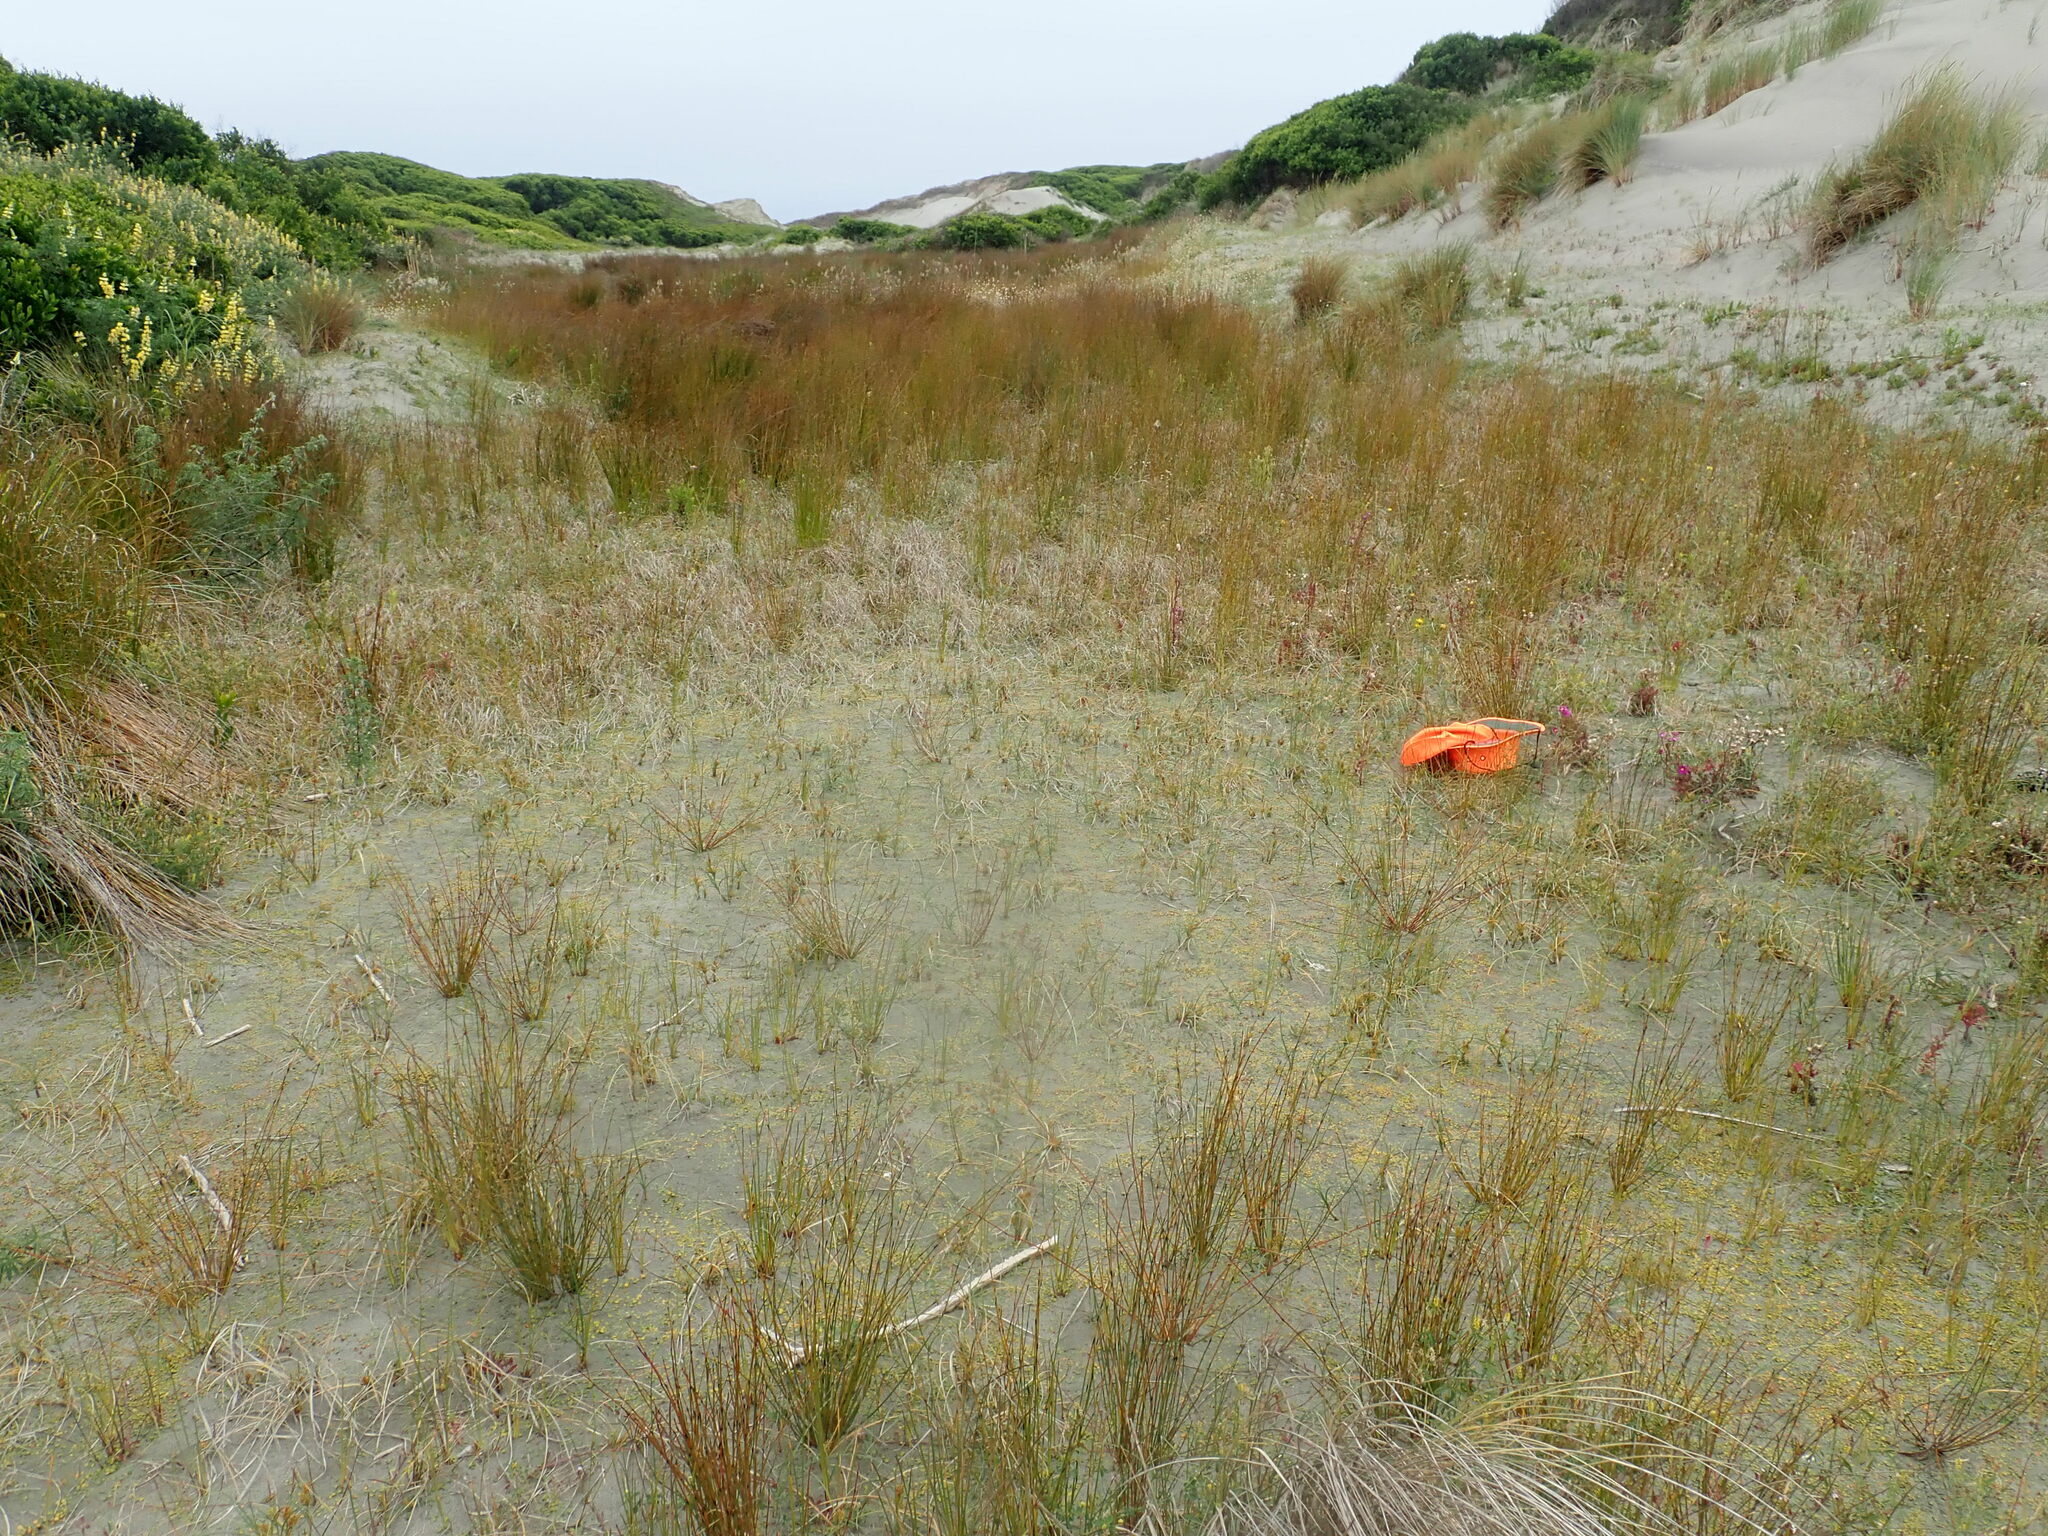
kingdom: Plantae
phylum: Tracheophyta
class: Magnoliopsida
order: Asterales
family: Goodeniaceae
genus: Goodenia
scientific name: Goodenia heenanii
